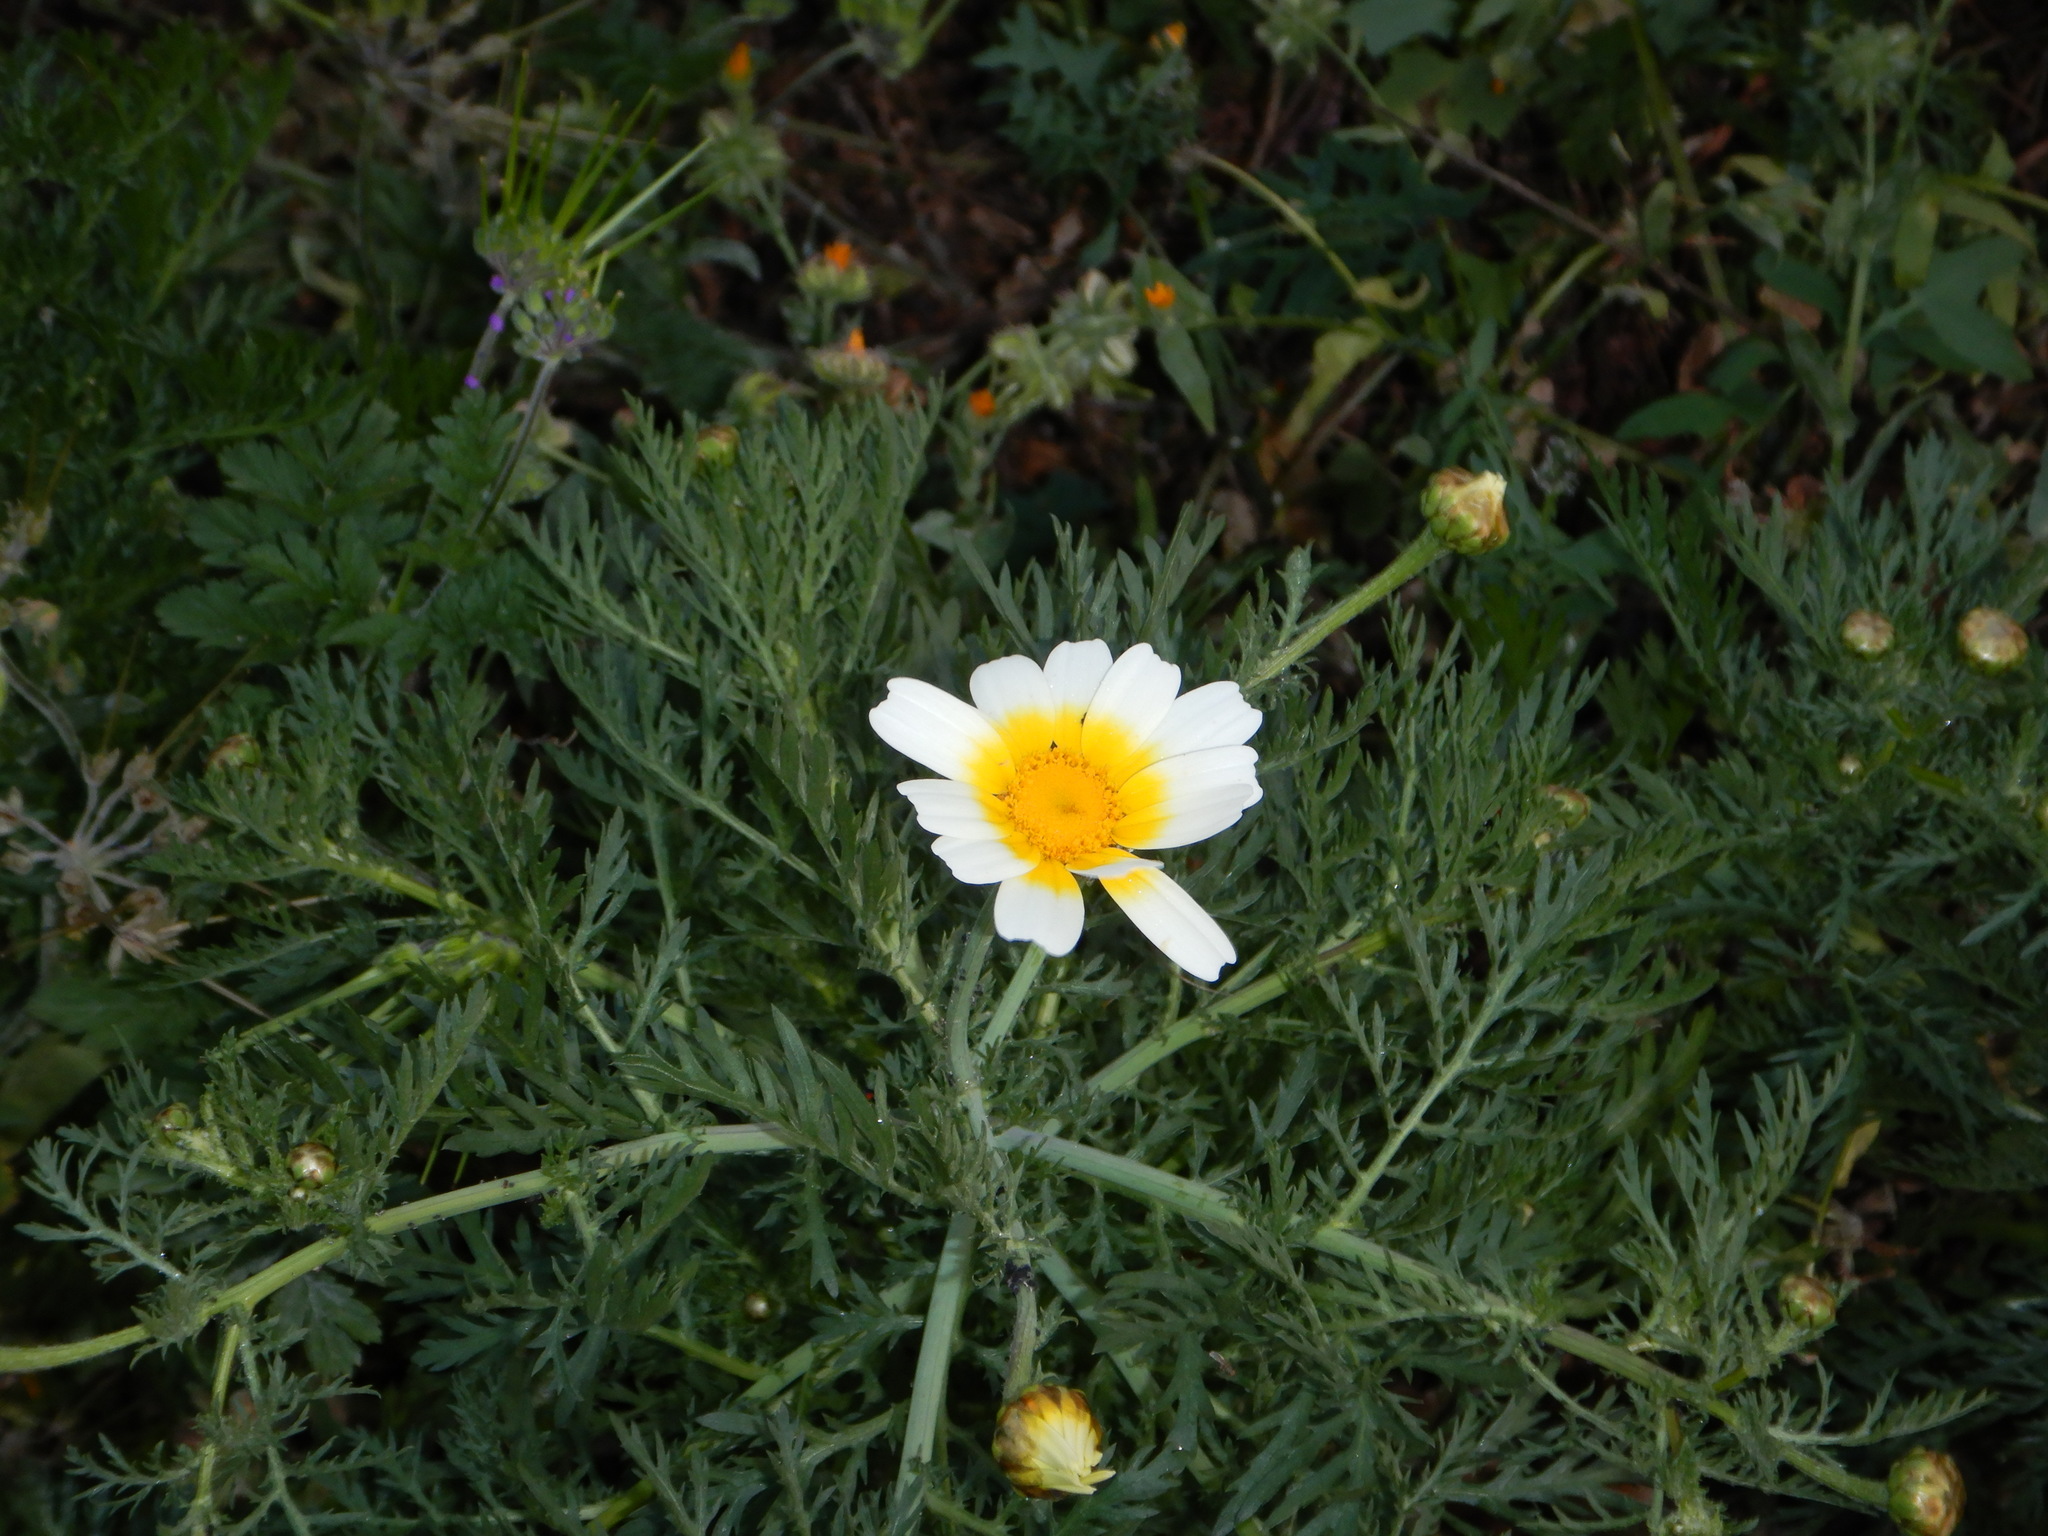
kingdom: Plantae
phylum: Tracheophyta
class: Magnoliopsida
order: Asterales
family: Asteraceae
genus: Glebionis
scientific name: Glebionis coronaria
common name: Crowndaisy
